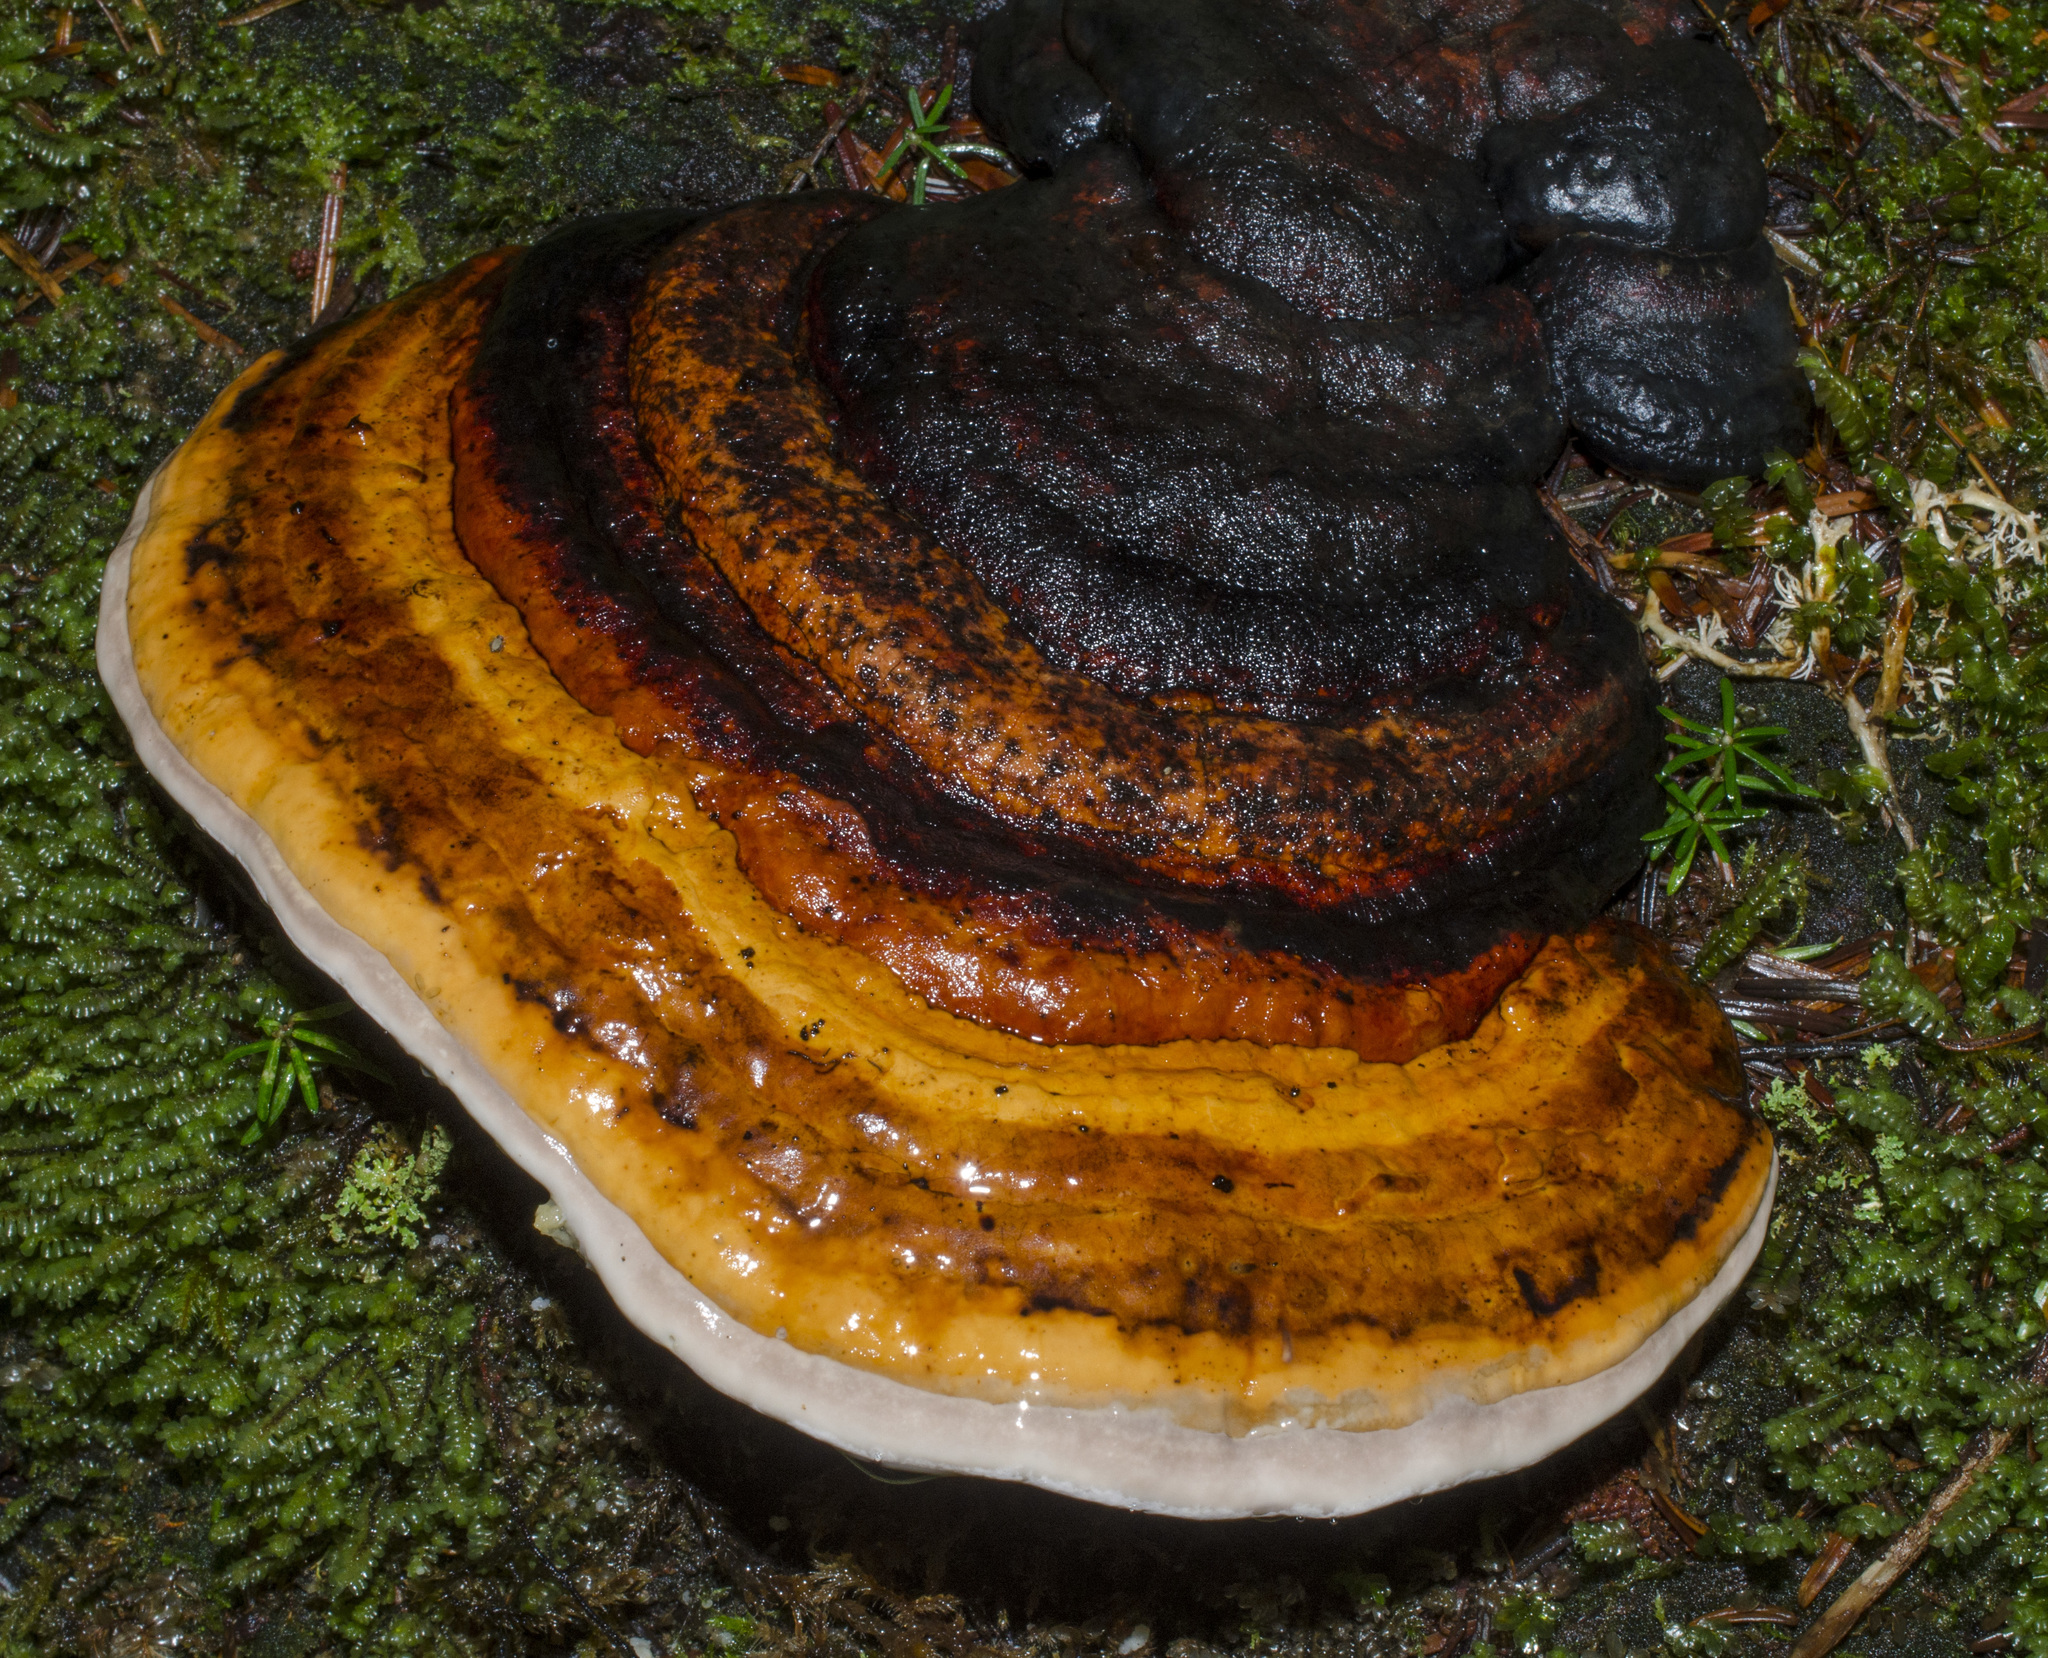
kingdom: Fungi
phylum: Basidiomycota
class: Agaricomycetes
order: Polyporales
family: Fomitopsidaceae
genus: Fomitopsis
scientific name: Fomitopsis mounceae
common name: Northern red belt
